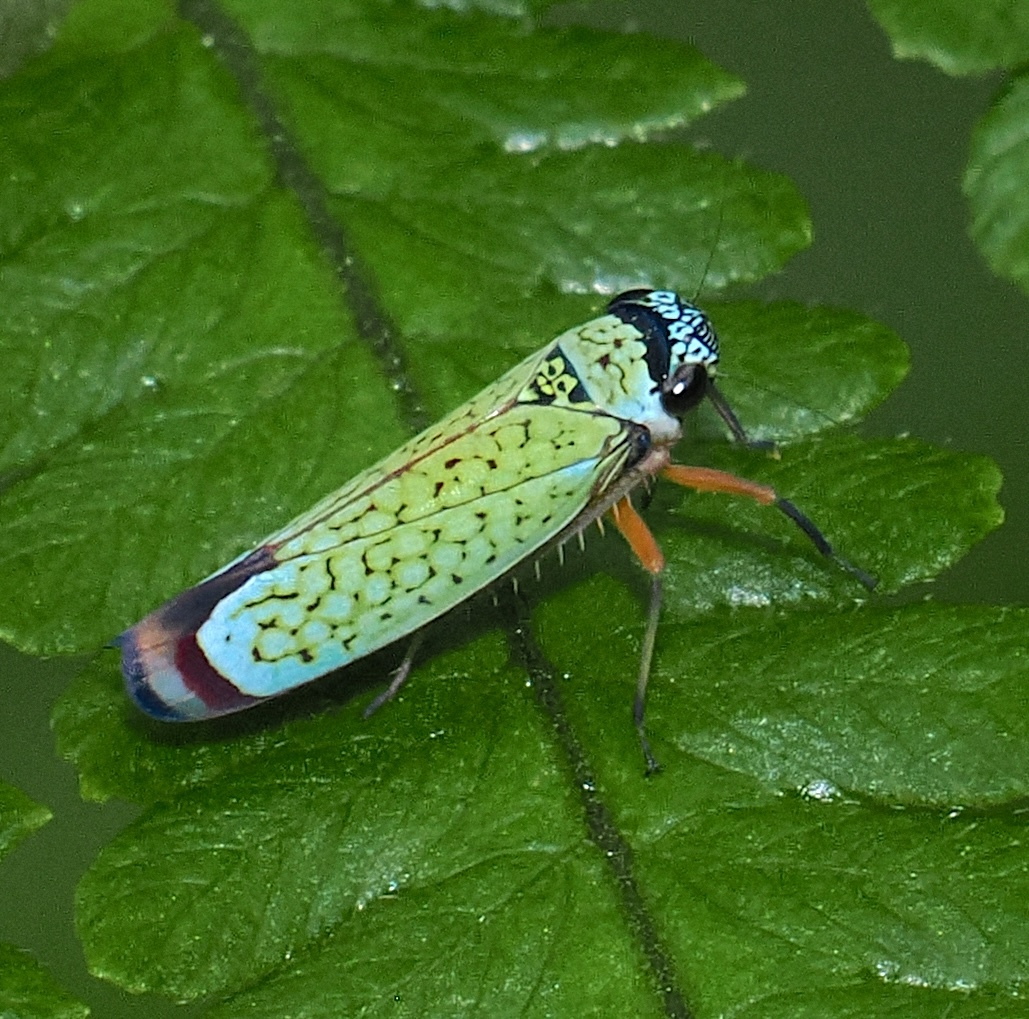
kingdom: Animalia
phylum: Arthropoda
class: Insecta
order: Hemiptera
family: Cicadellidae
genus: Versigonalia
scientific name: Versigonalia ruficauda
